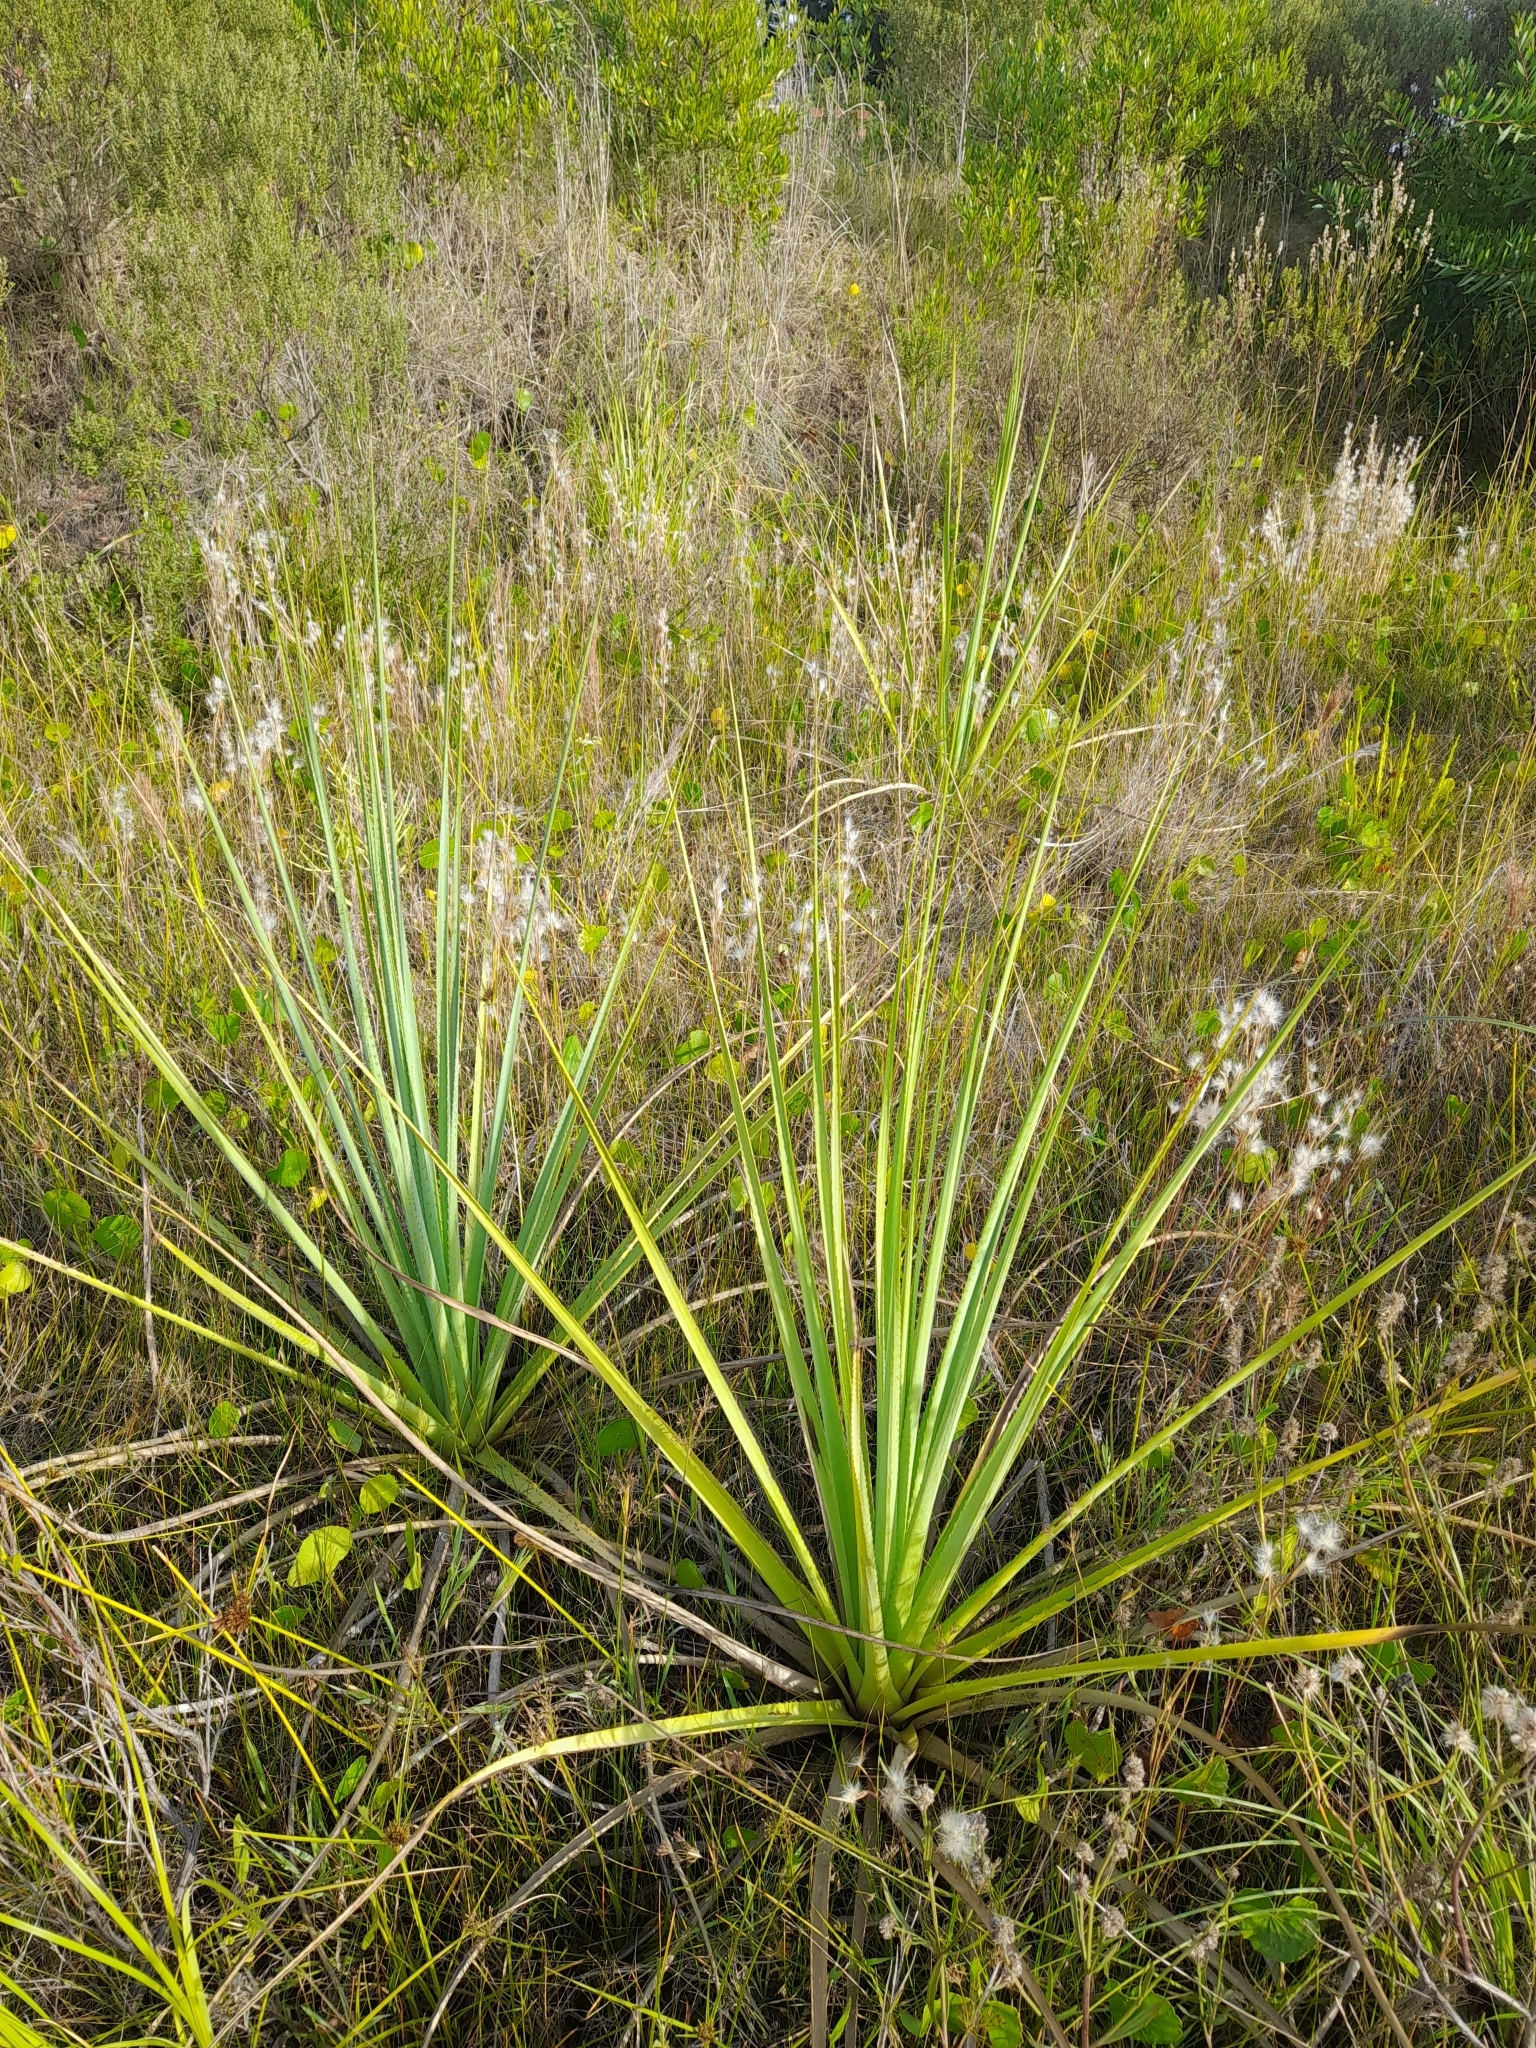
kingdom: Plantae
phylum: Tracheophyta
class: Magnoliopsida
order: Apiales
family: Apiaceae
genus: Eryngium
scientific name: Eryngium pandanifolium
